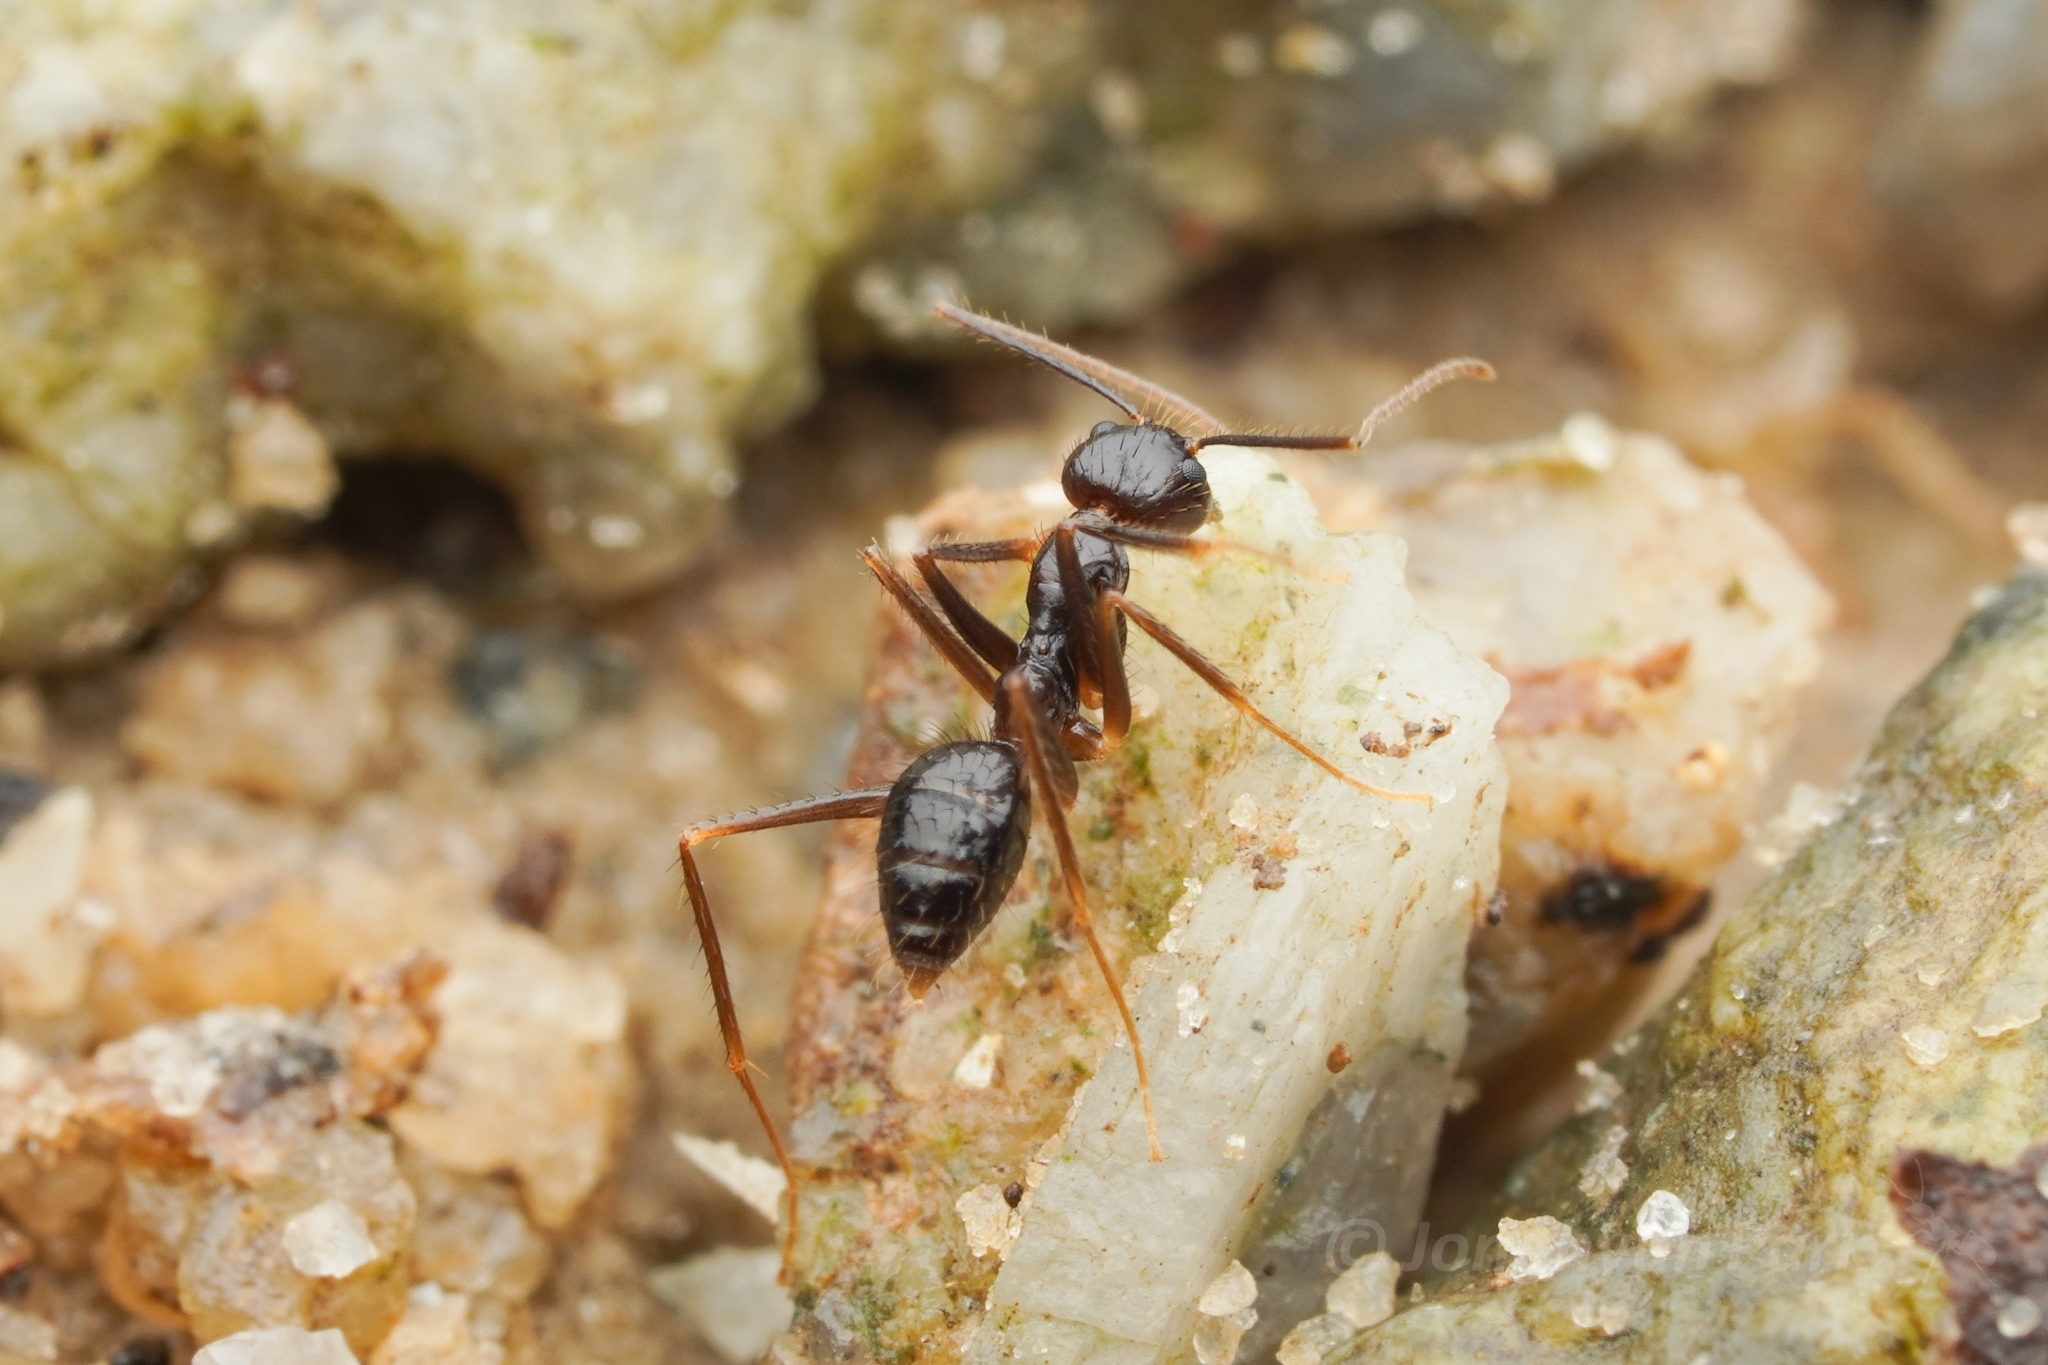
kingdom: Animalia
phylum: Arthropoda
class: Insecta
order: Hymenoptera
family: Formicidae
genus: Euprenolepis
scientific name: Euprenolepis procera
